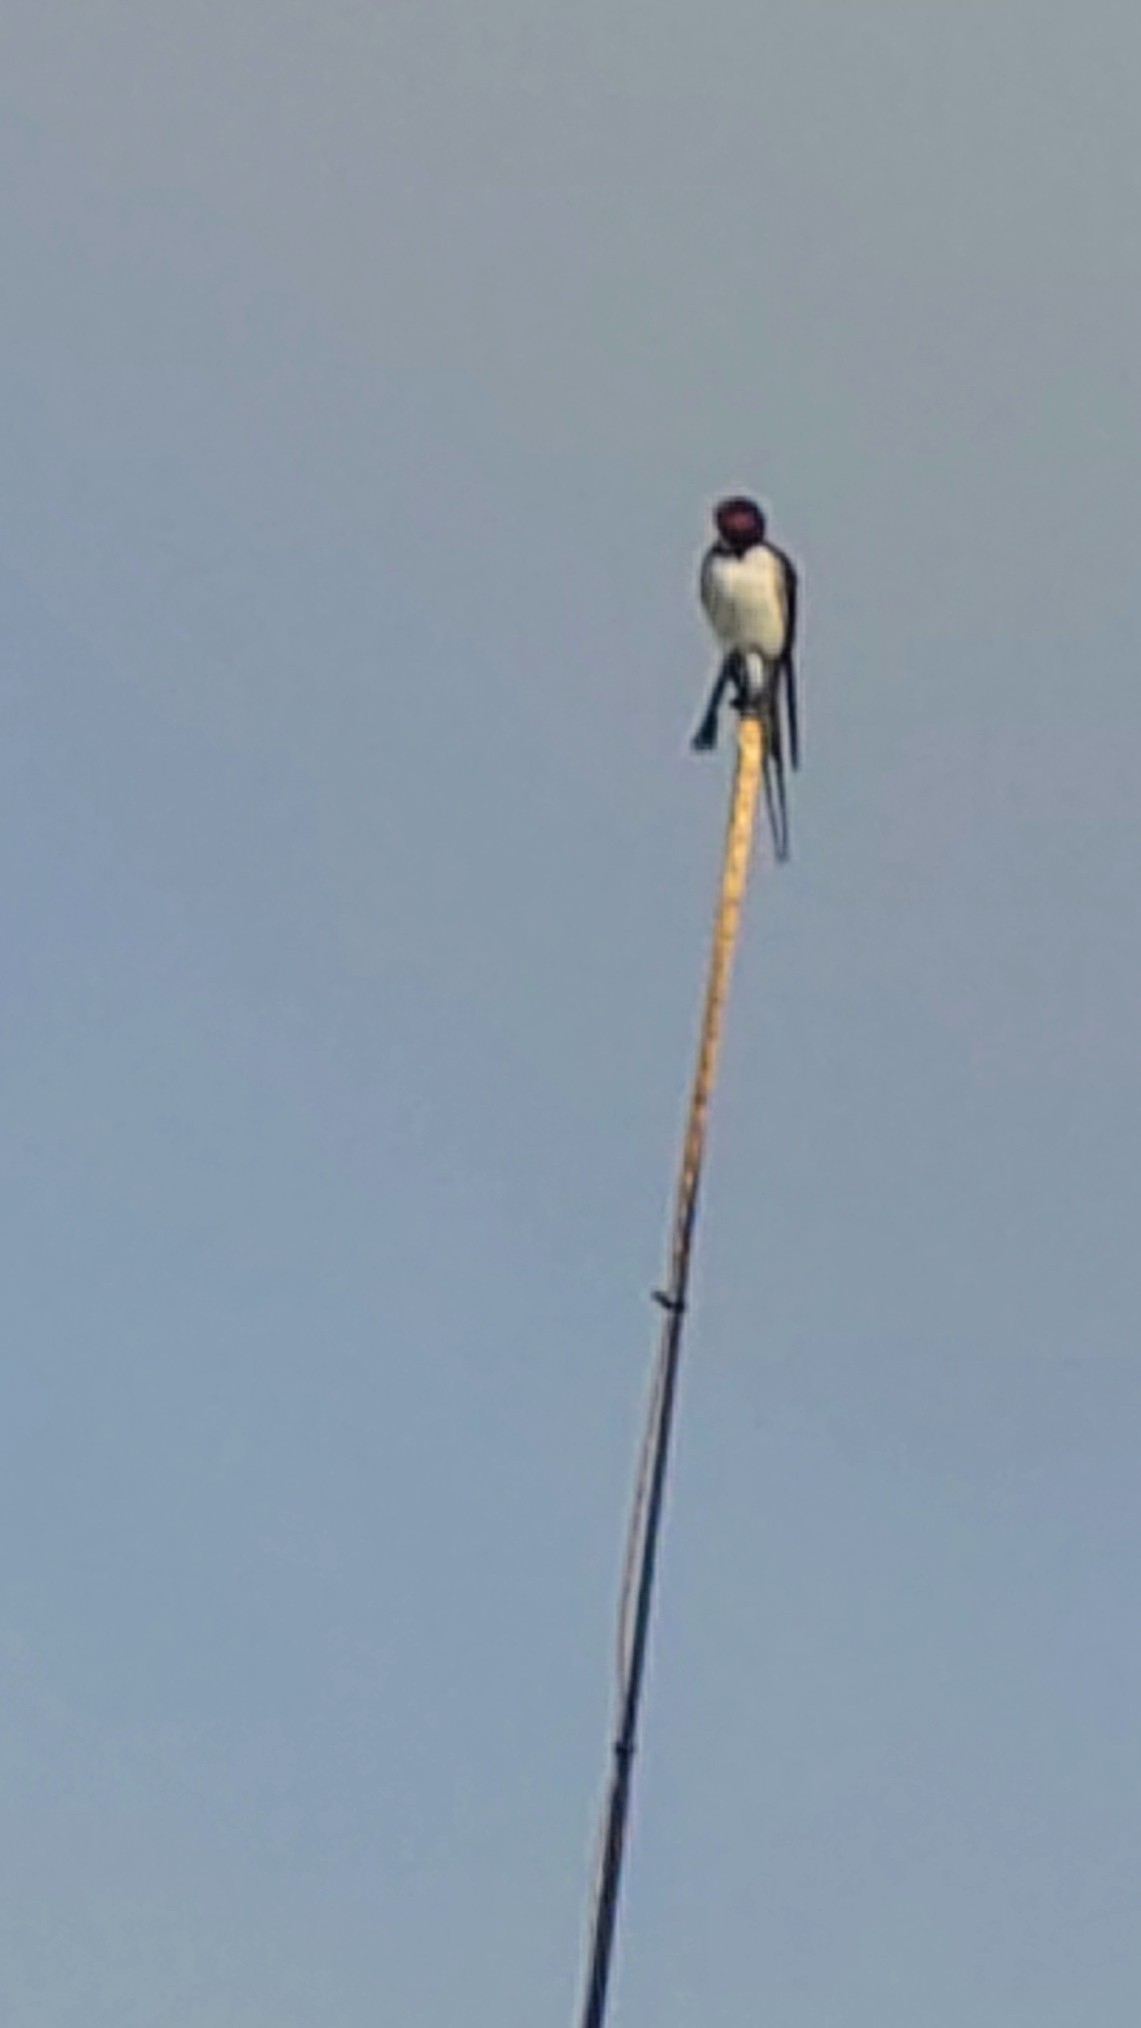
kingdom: Animalia
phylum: Chordata
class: Aves
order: Passeriformes
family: Hirundinidae
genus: Hirundo
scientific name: Hirundo rustica
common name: Barn swallow
